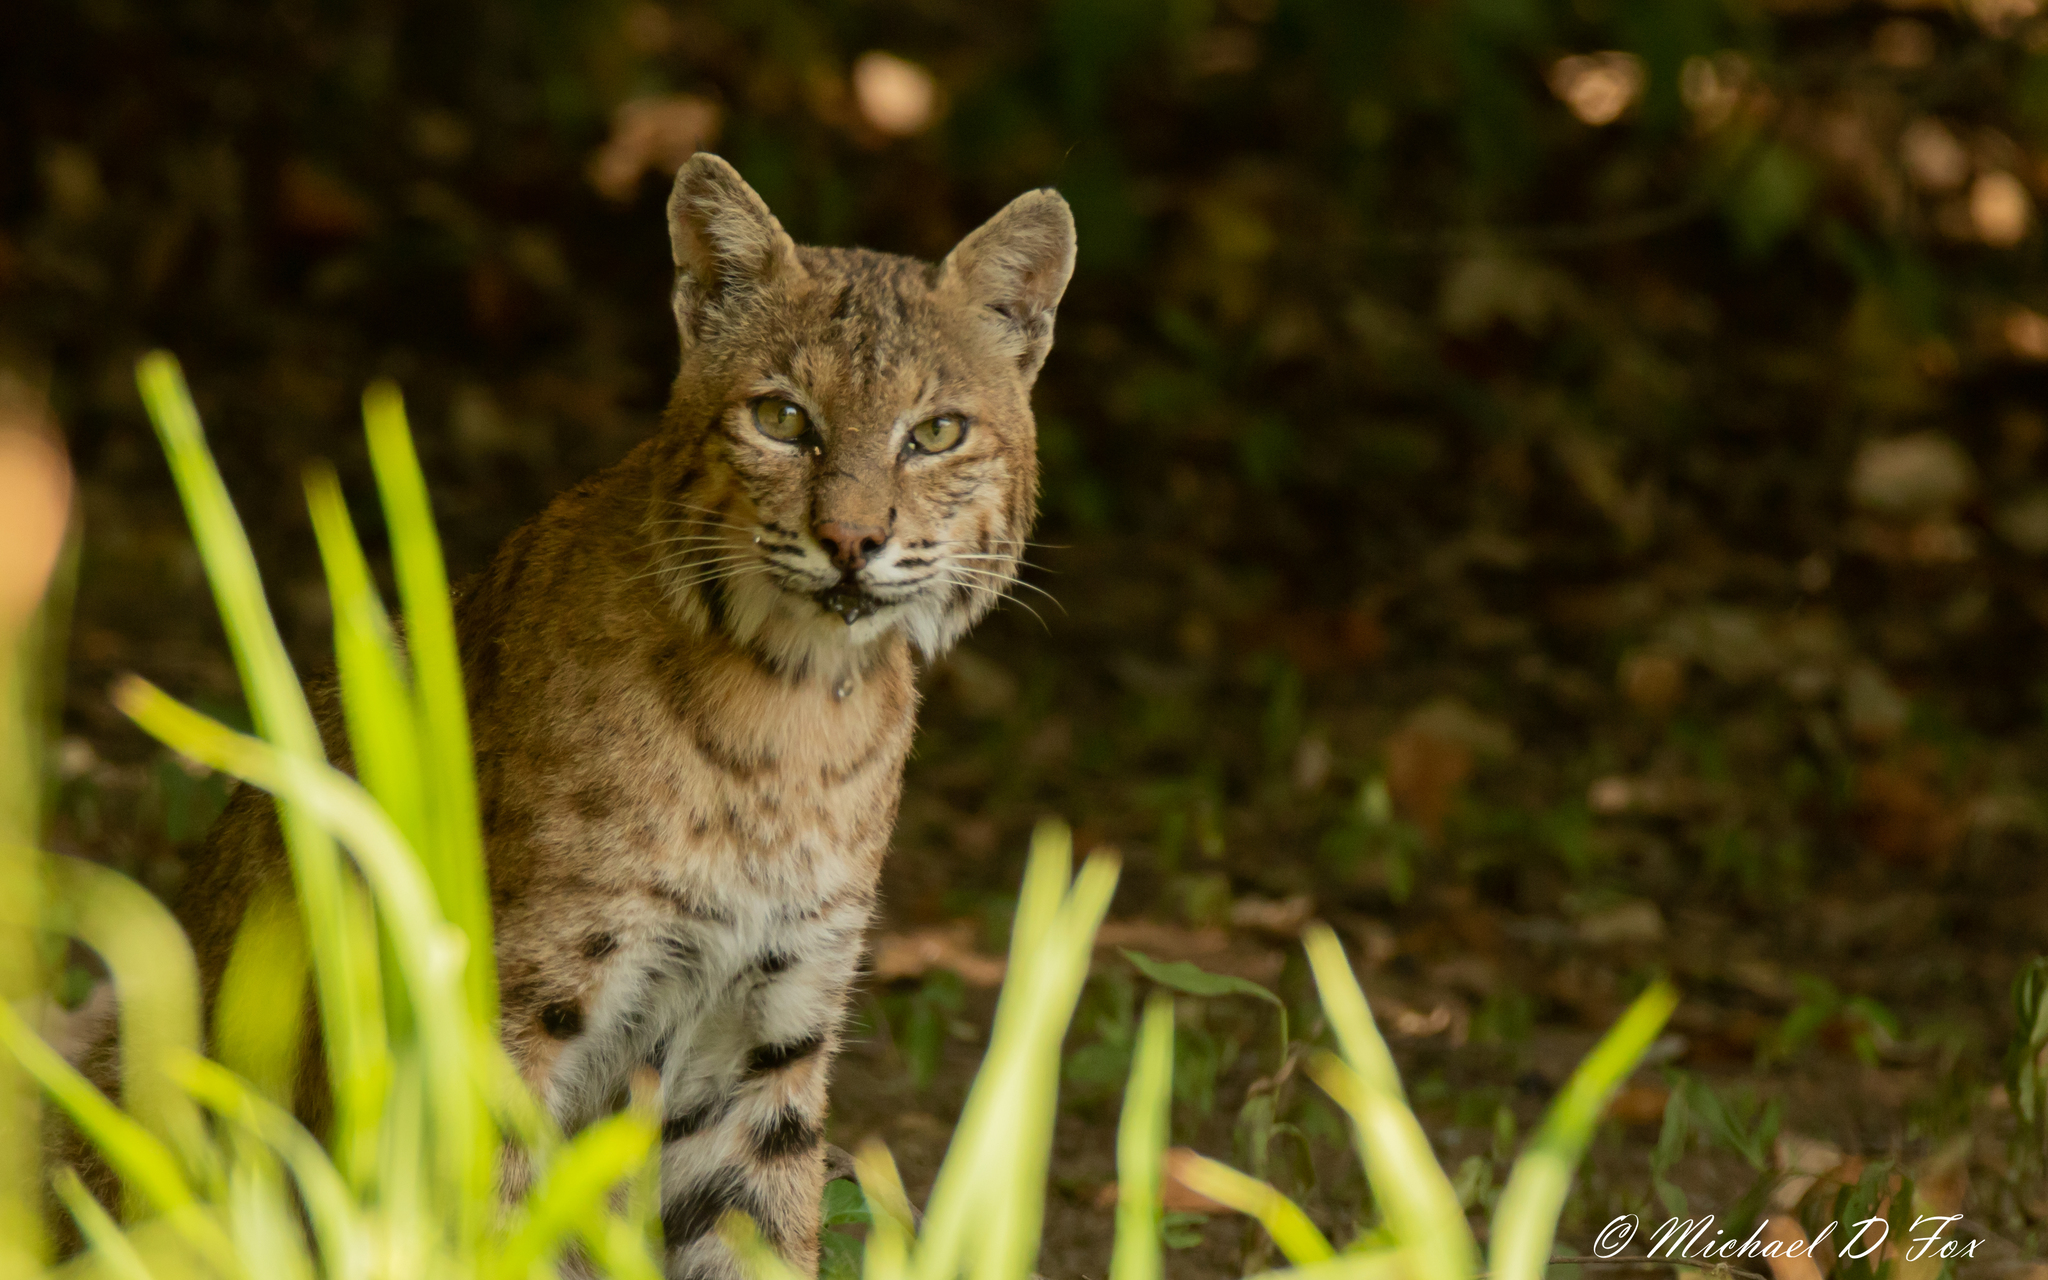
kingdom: Animalia
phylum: Chordata
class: Mammalia
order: Carnivora
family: Felidae
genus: Lynx
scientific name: Lynx rufus
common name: Bobcat
